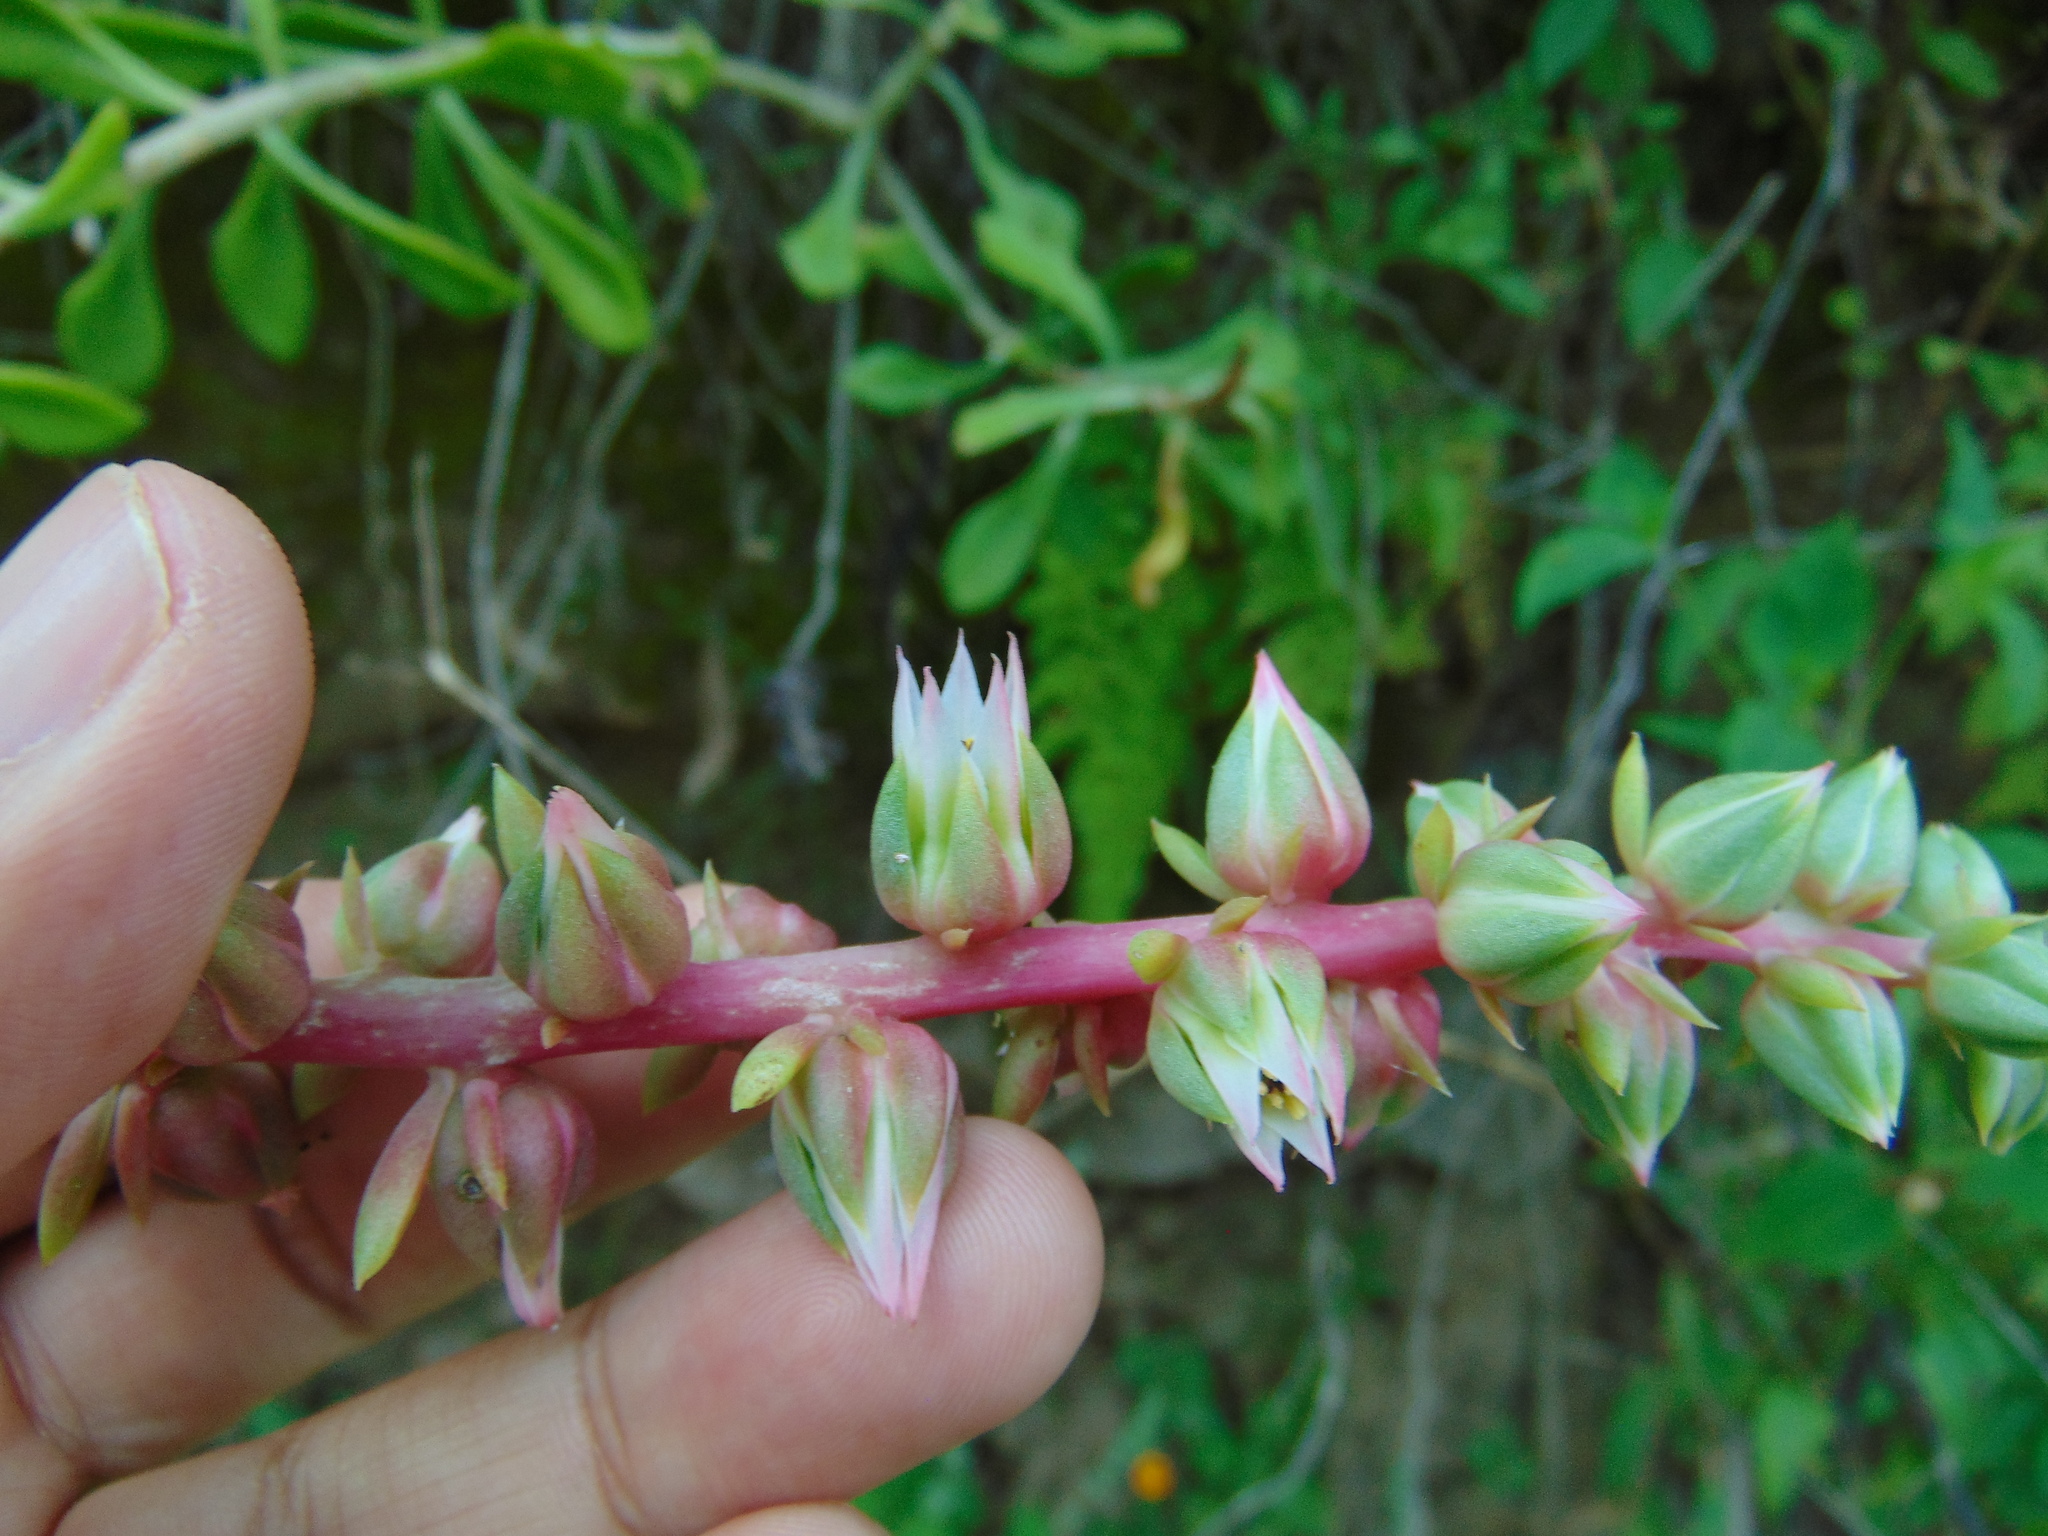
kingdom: Plantae
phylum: Tracheophyta
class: Magnoliopsida
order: Saxifragales
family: Crassulaceae
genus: Echeveria
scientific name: Echeveria waltheri
